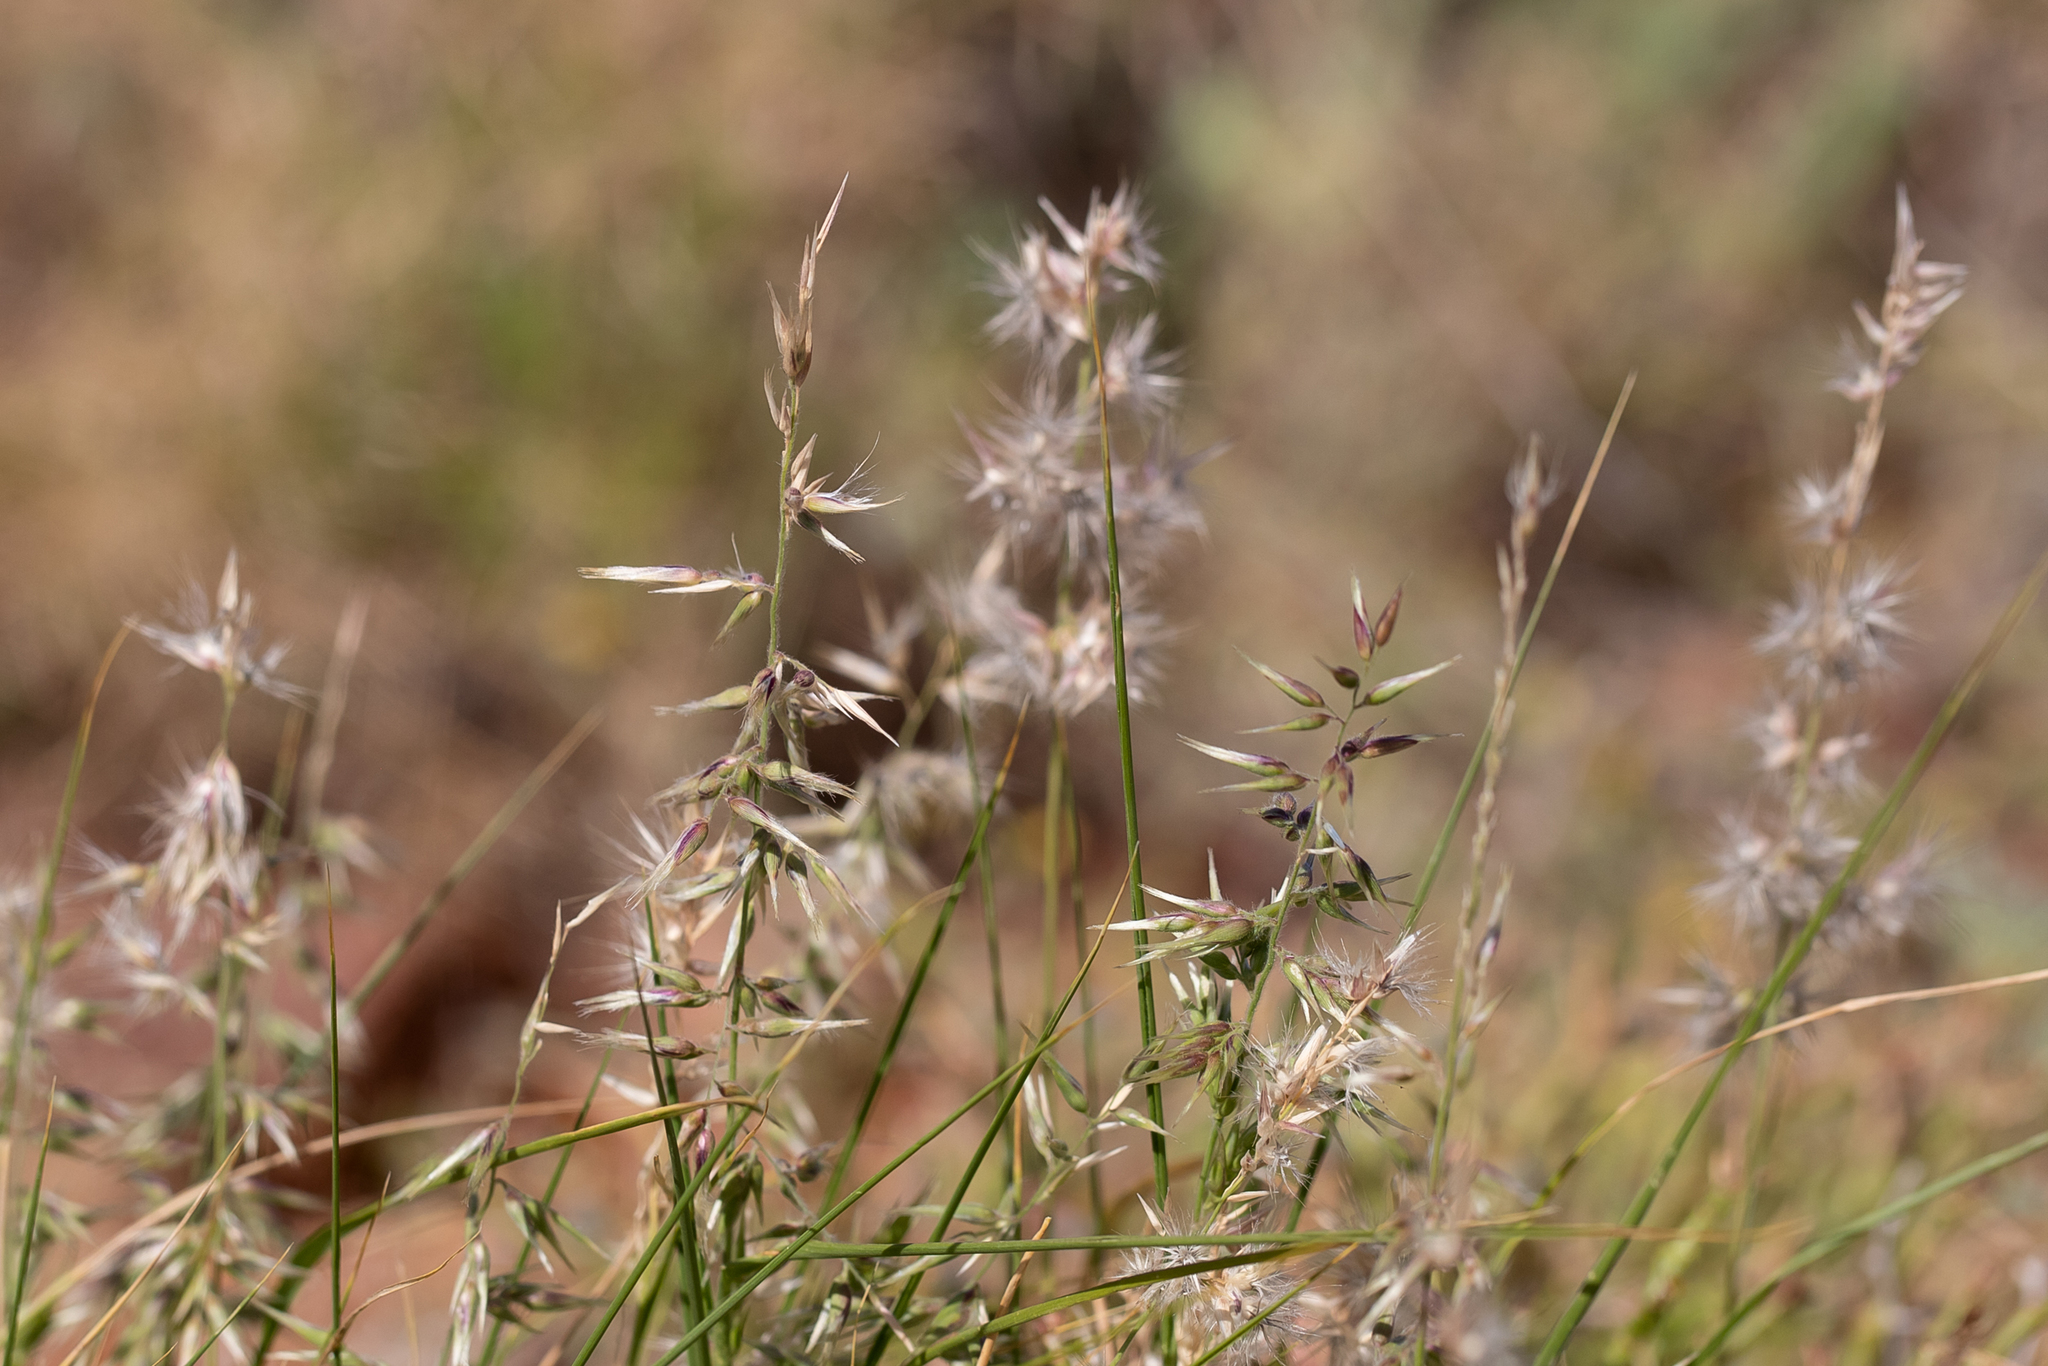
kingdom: Plantae
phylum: Tracheophyta
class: Liliopsida
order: Poales
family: Poaceae
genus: Enneapogon
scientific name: Enneapogon avenaceus
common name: Hairy oat grass
